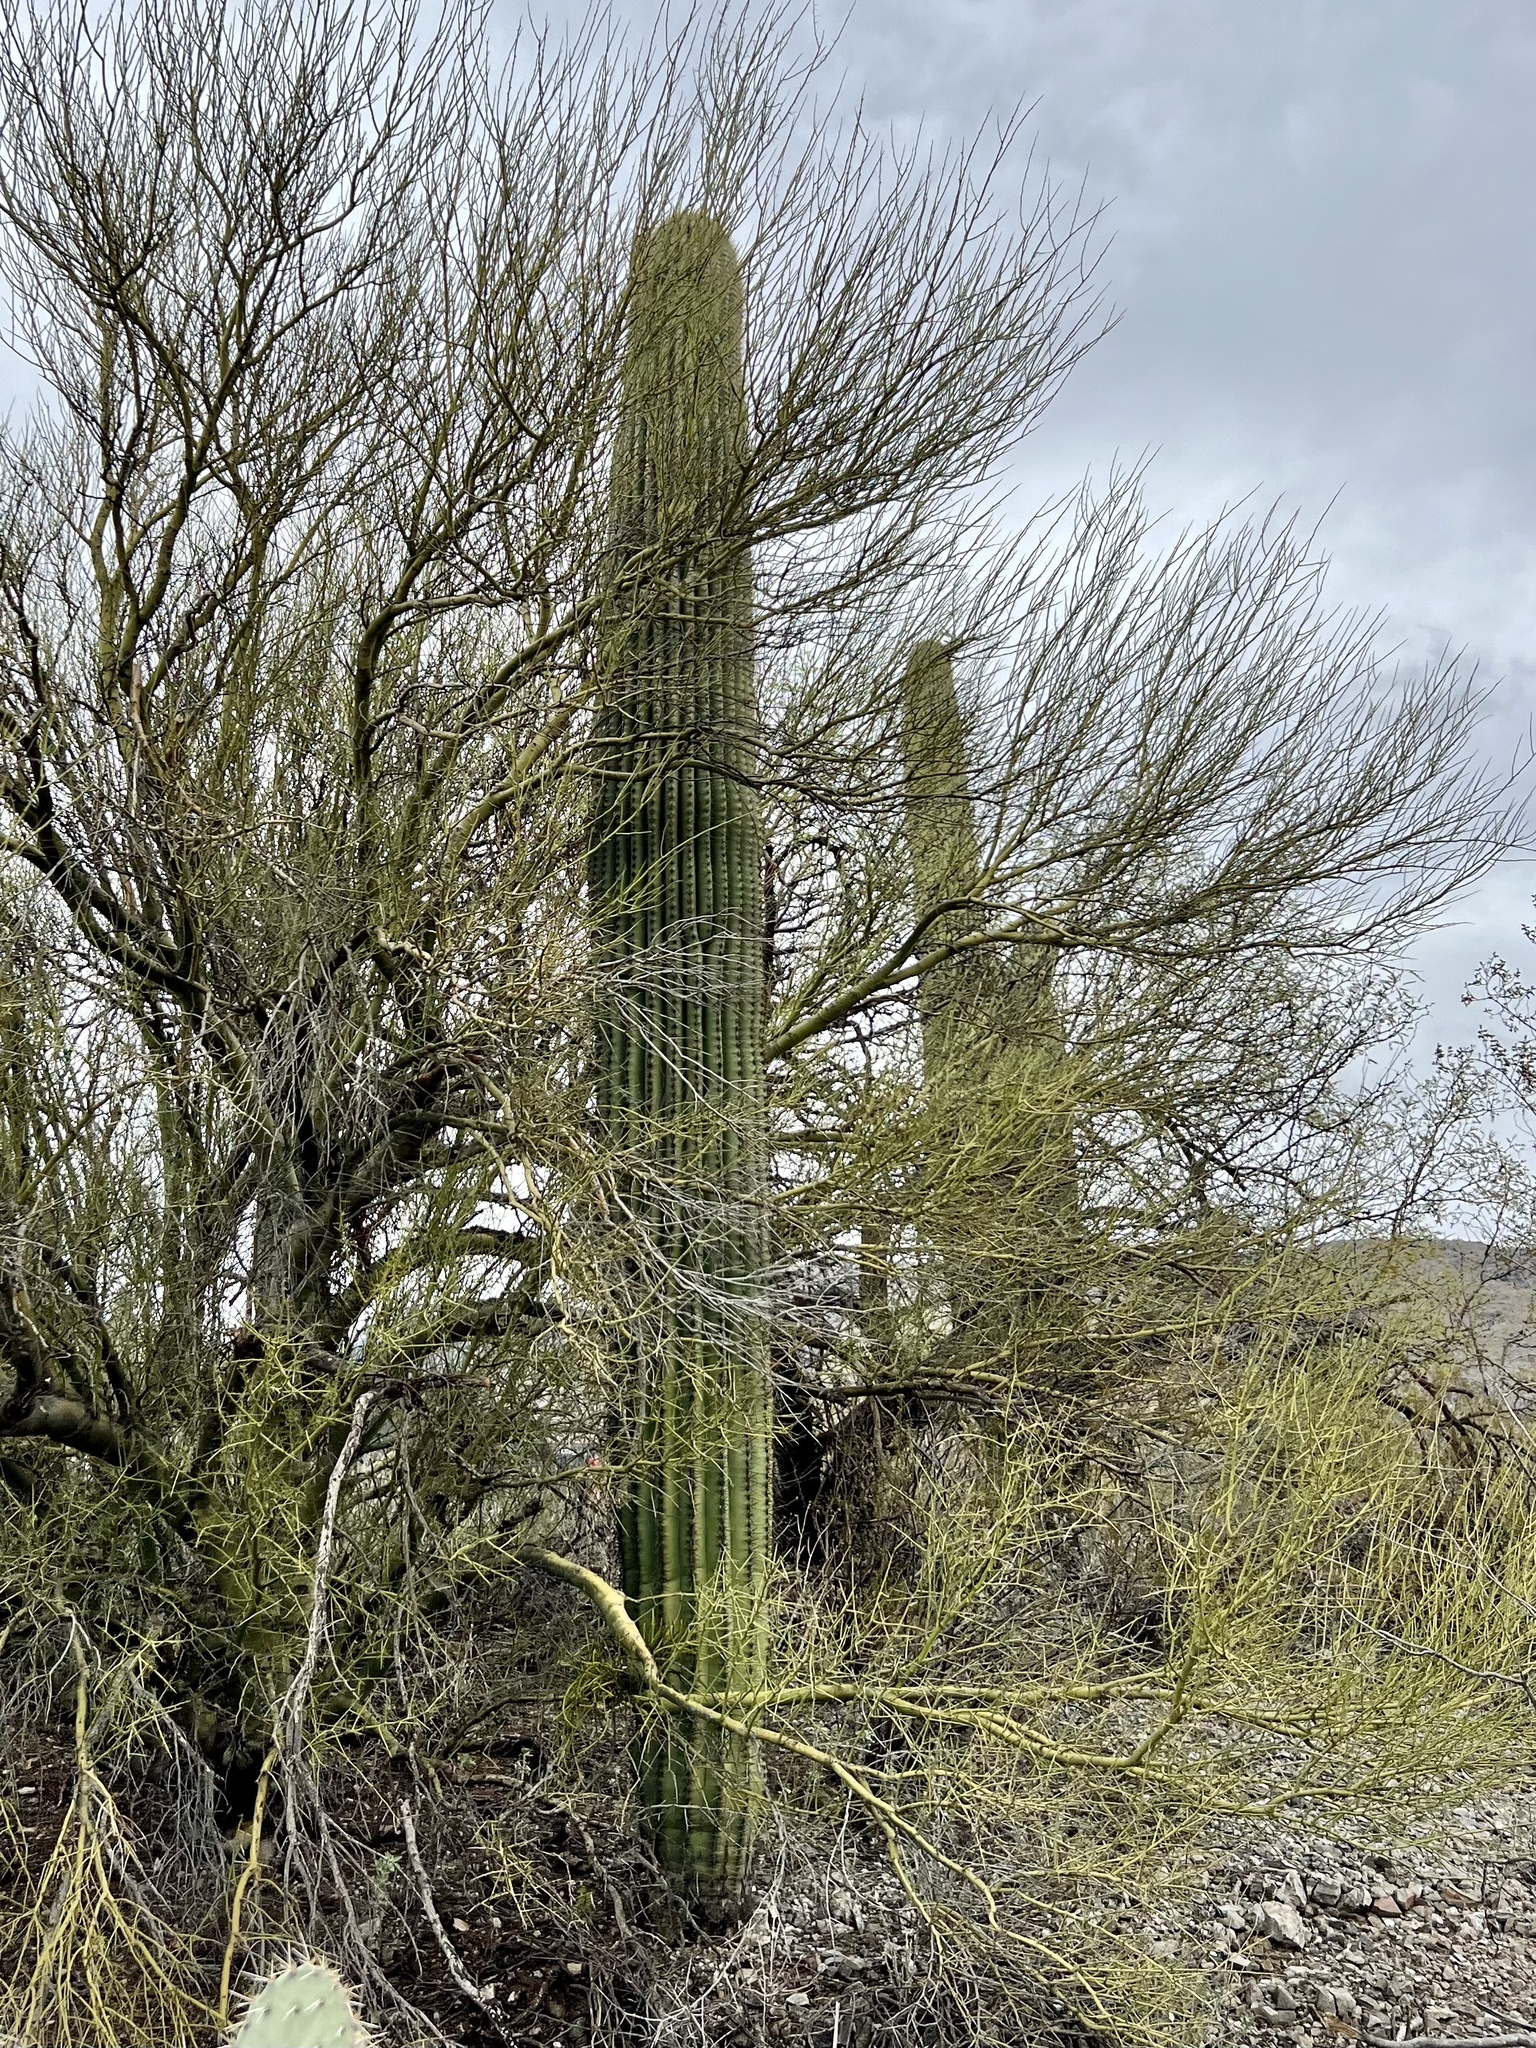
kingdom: Plantae
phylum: Tracheophyta
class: Magnoliopsida
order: Caryophyllales
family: Cactaceae
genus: Carnegiea
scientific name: Carnegiea gigantea
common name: Saguaro
